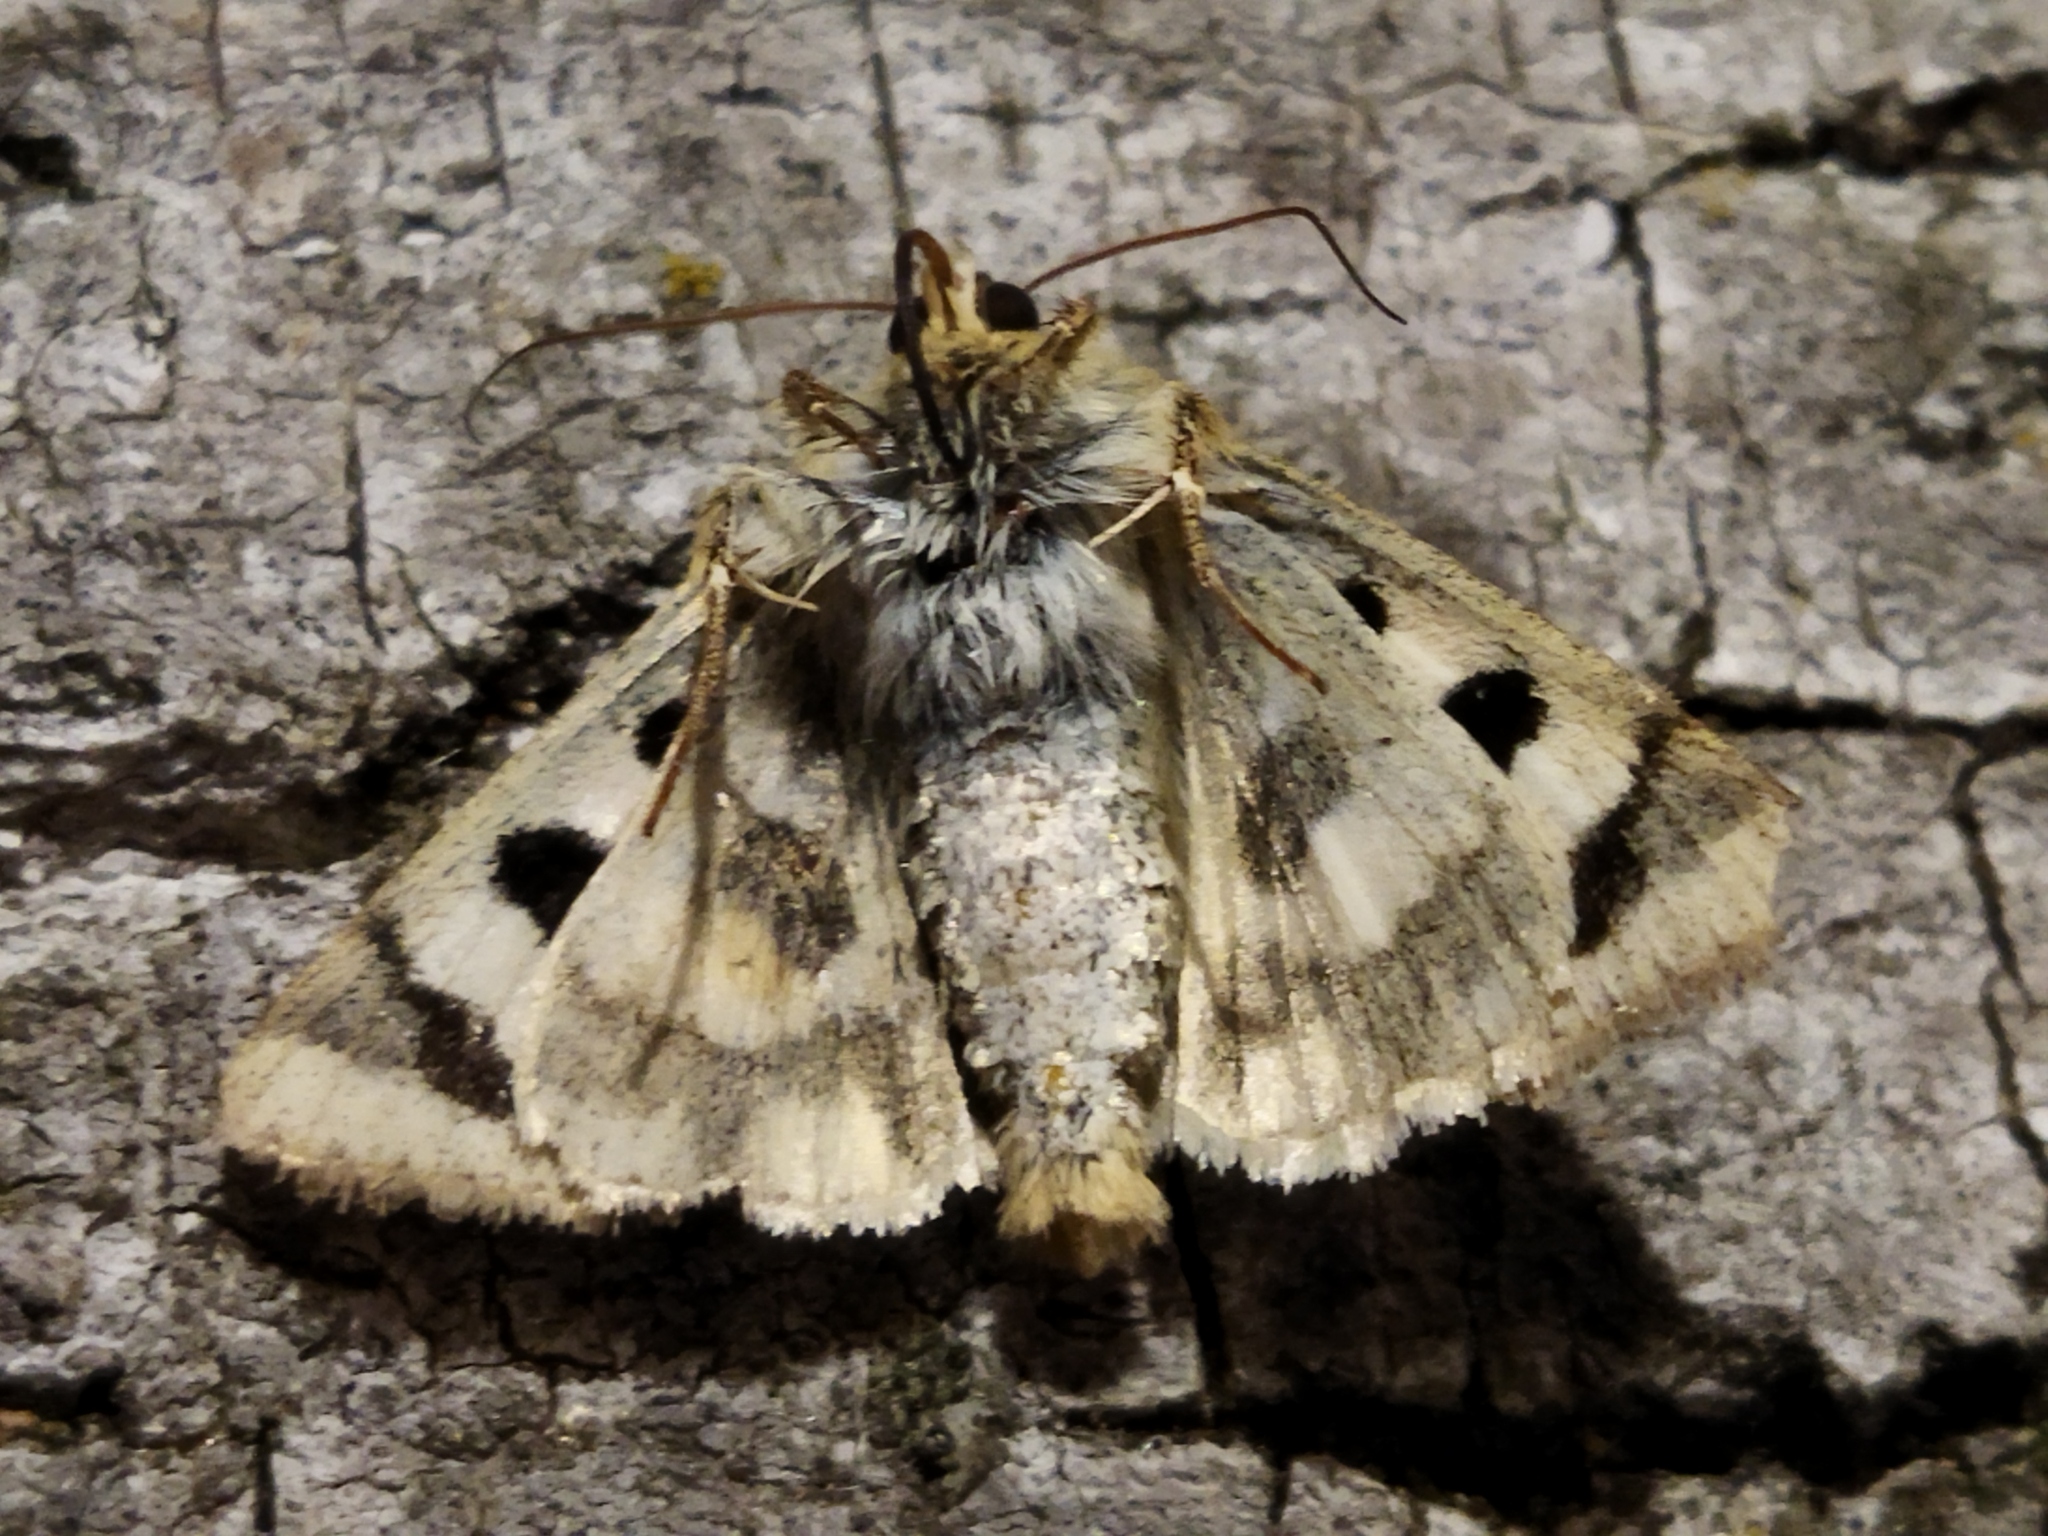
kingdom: Animalia
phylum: Arthropoda
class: Insecta
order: Lepidoptera
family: Noctuidae
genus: Heliothis
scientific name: Heliothis viriplaca
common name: Marbled clover
